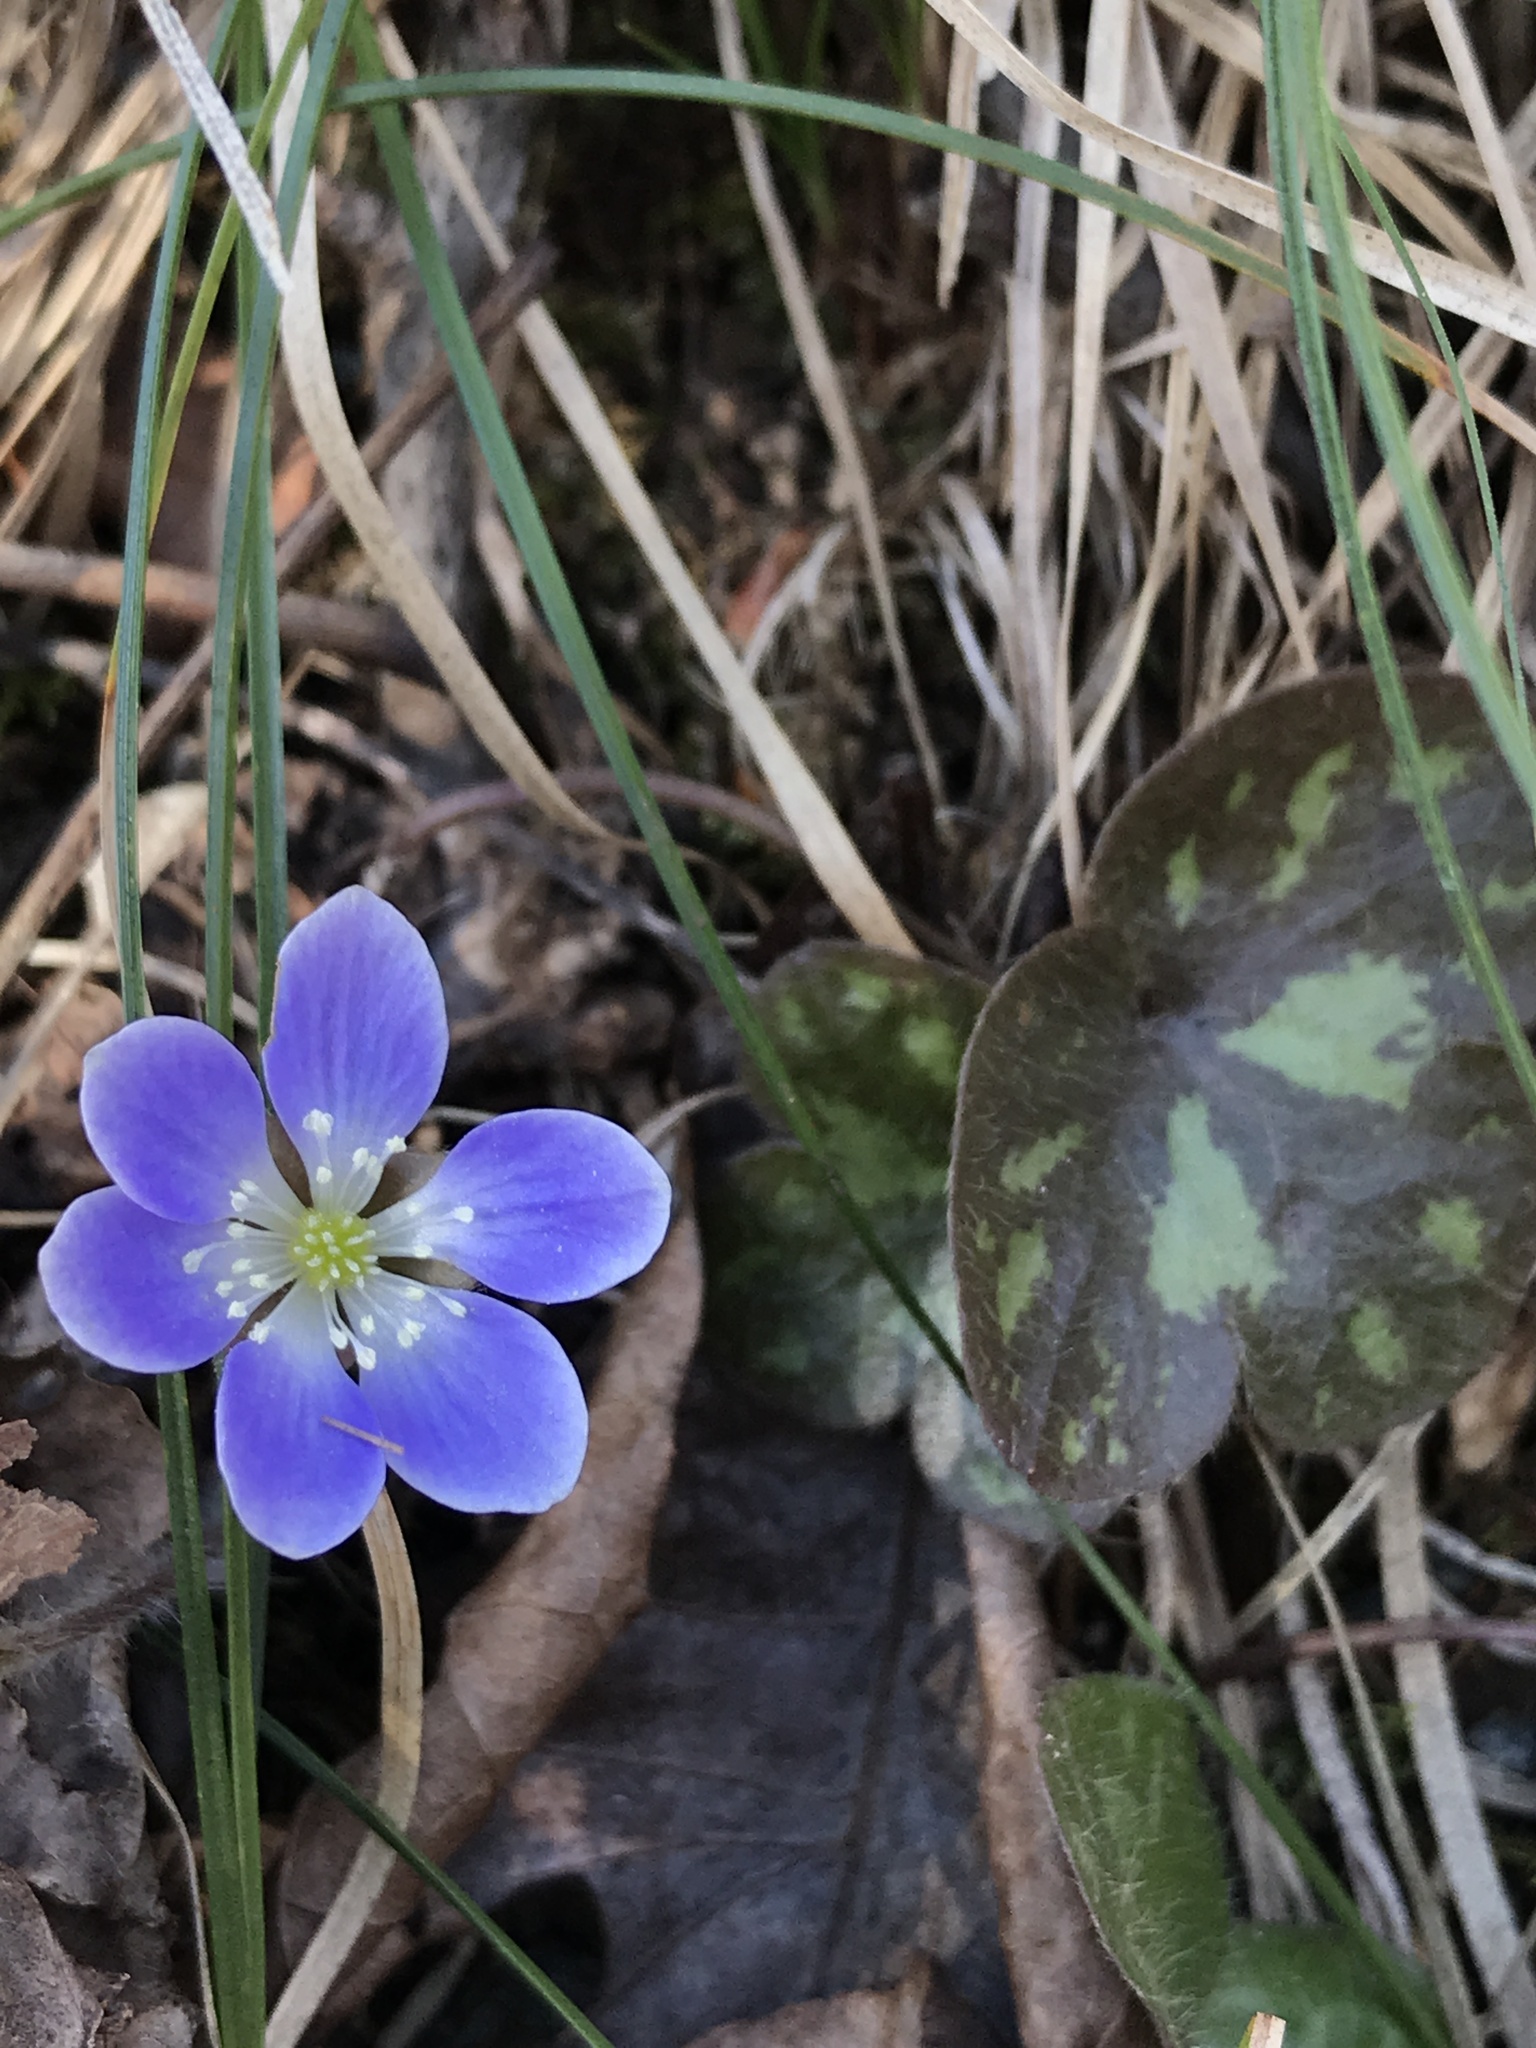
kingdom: Plantae
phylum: Tracheophyta
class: Magnoliopsida
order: Ranunculales
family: Ranunculaceae
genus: Hepatica
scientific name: Hepatica americana
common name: American hepatica
